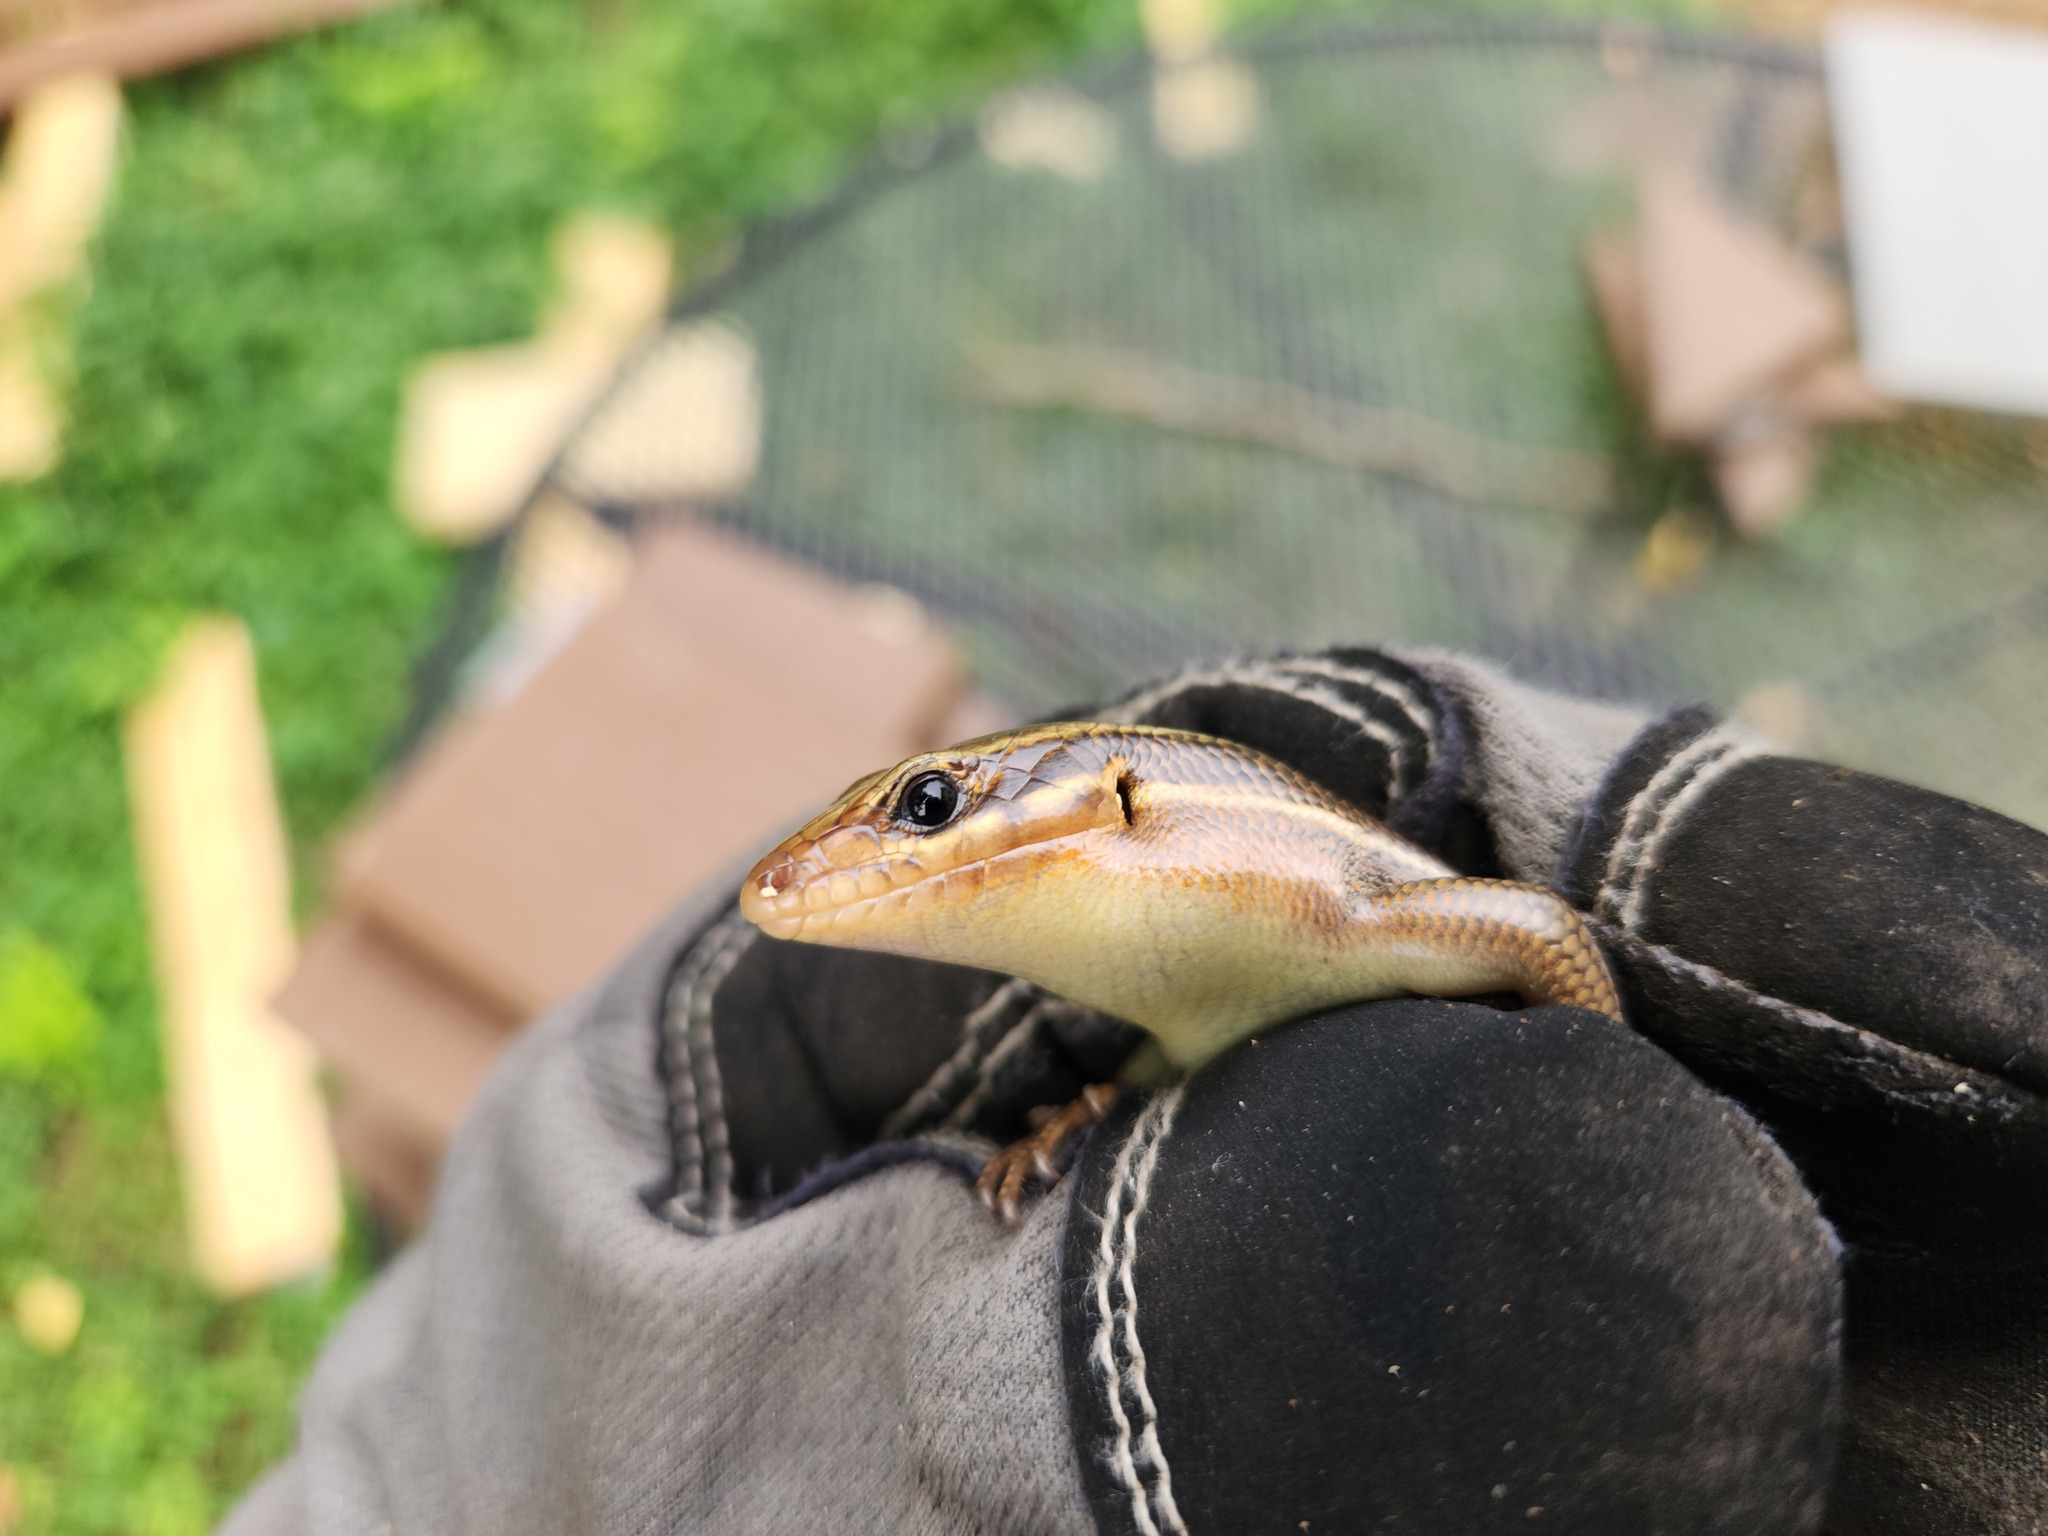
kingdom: Animalia
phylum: Chordata
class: Squamata
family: Scincidae
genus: Plestiodon
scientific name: Plestiodon laticeps
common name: Broadhead skink
